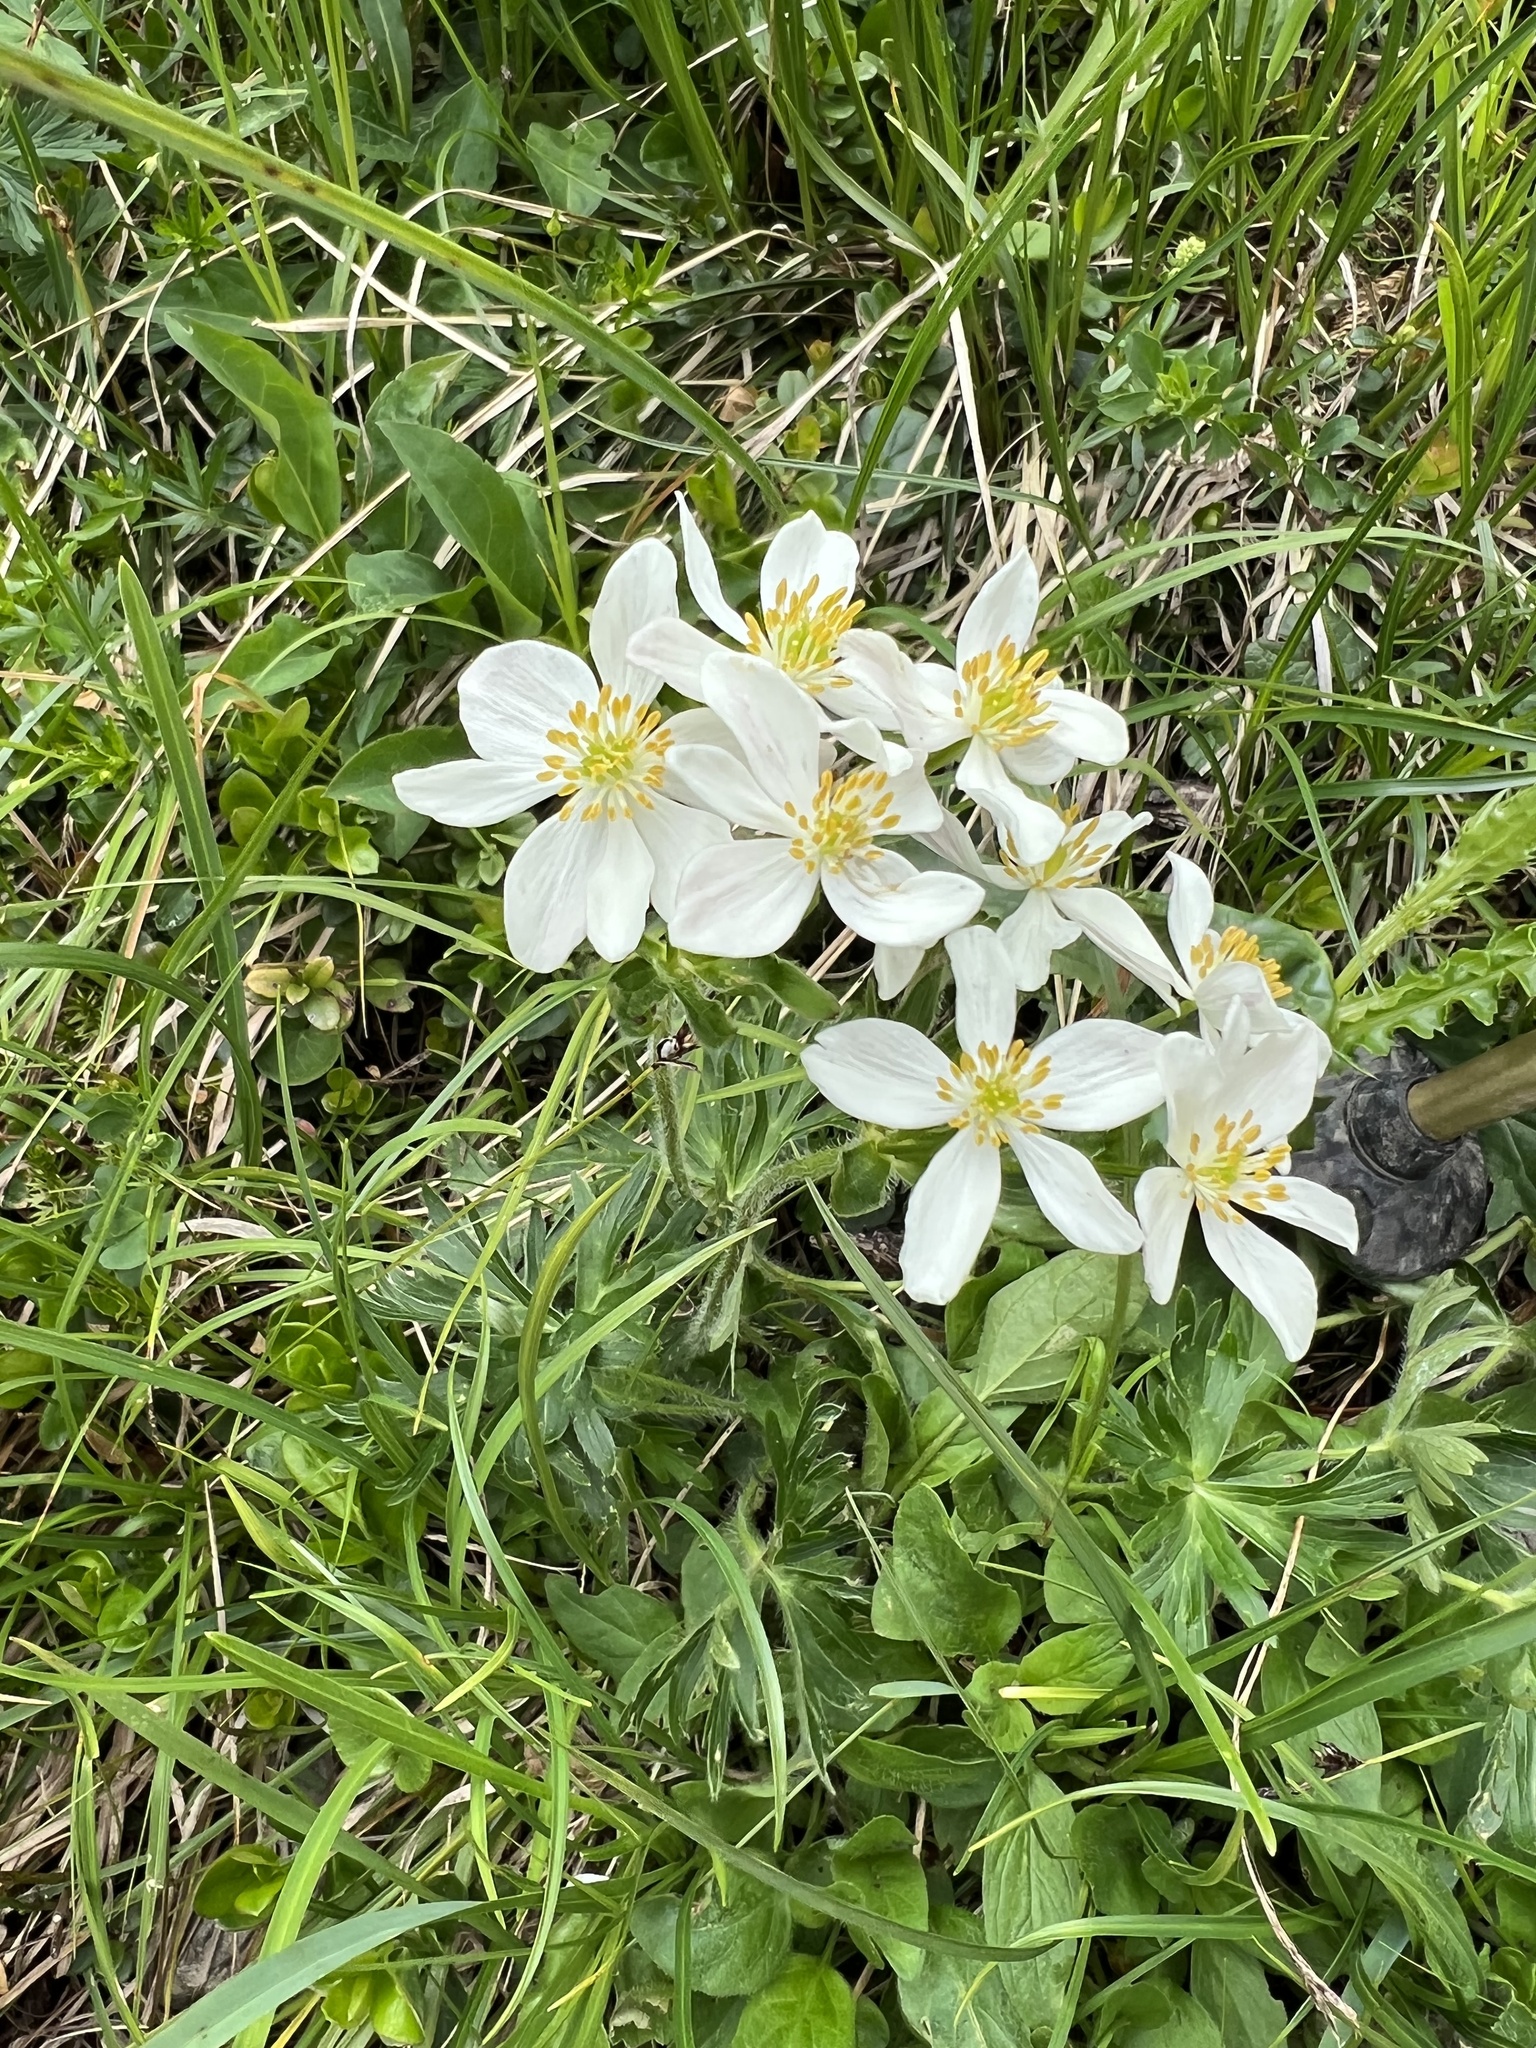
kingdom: Plantae
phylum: Tracheophyta
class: Magnoliopsida
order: Ranunculales
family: Ranunculaceae
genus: Anemonastrum
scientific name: Anemonastrum narcissiflorum
